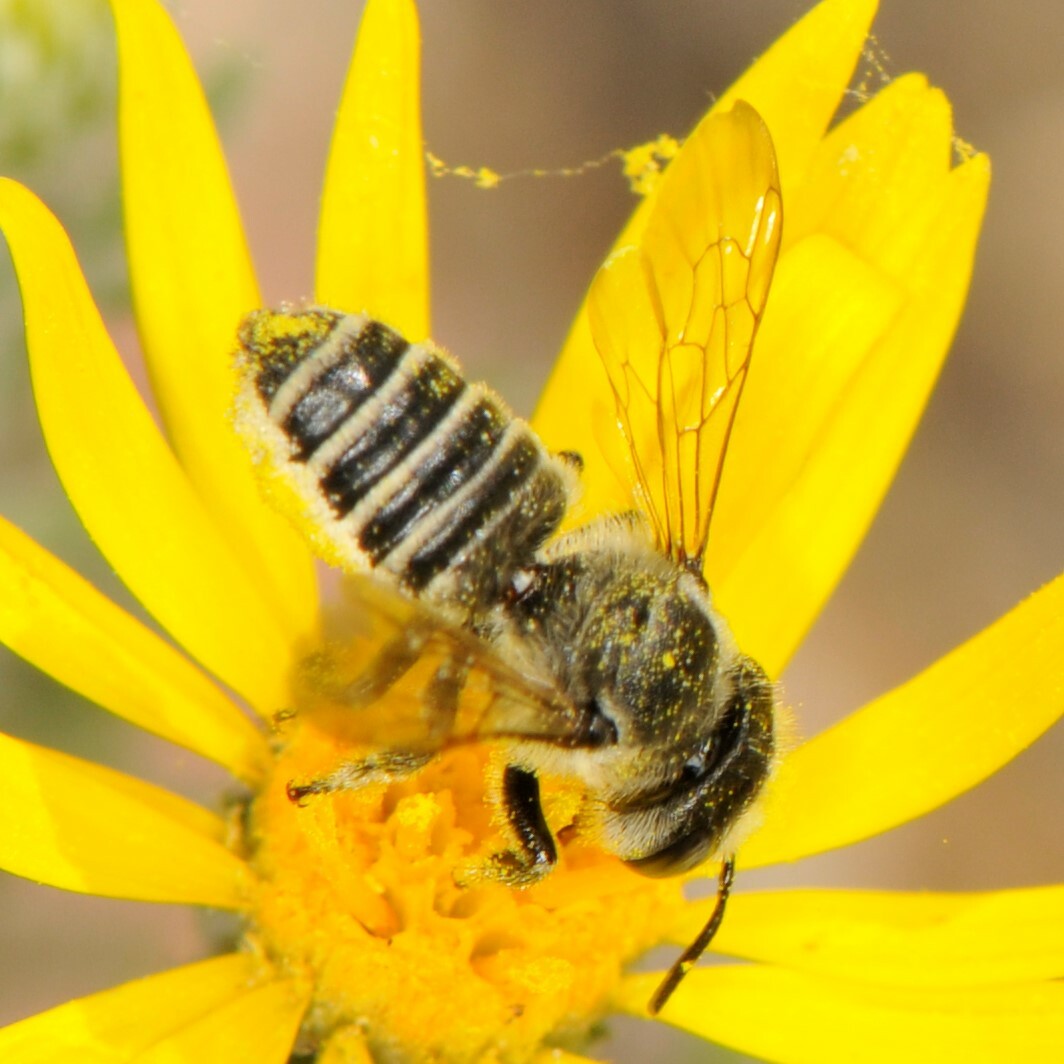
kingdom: Animalia
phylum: Arthropoda
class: Insecta
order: Hymenoptera
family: Megachilidae
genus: Megachile
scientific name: Megachile
